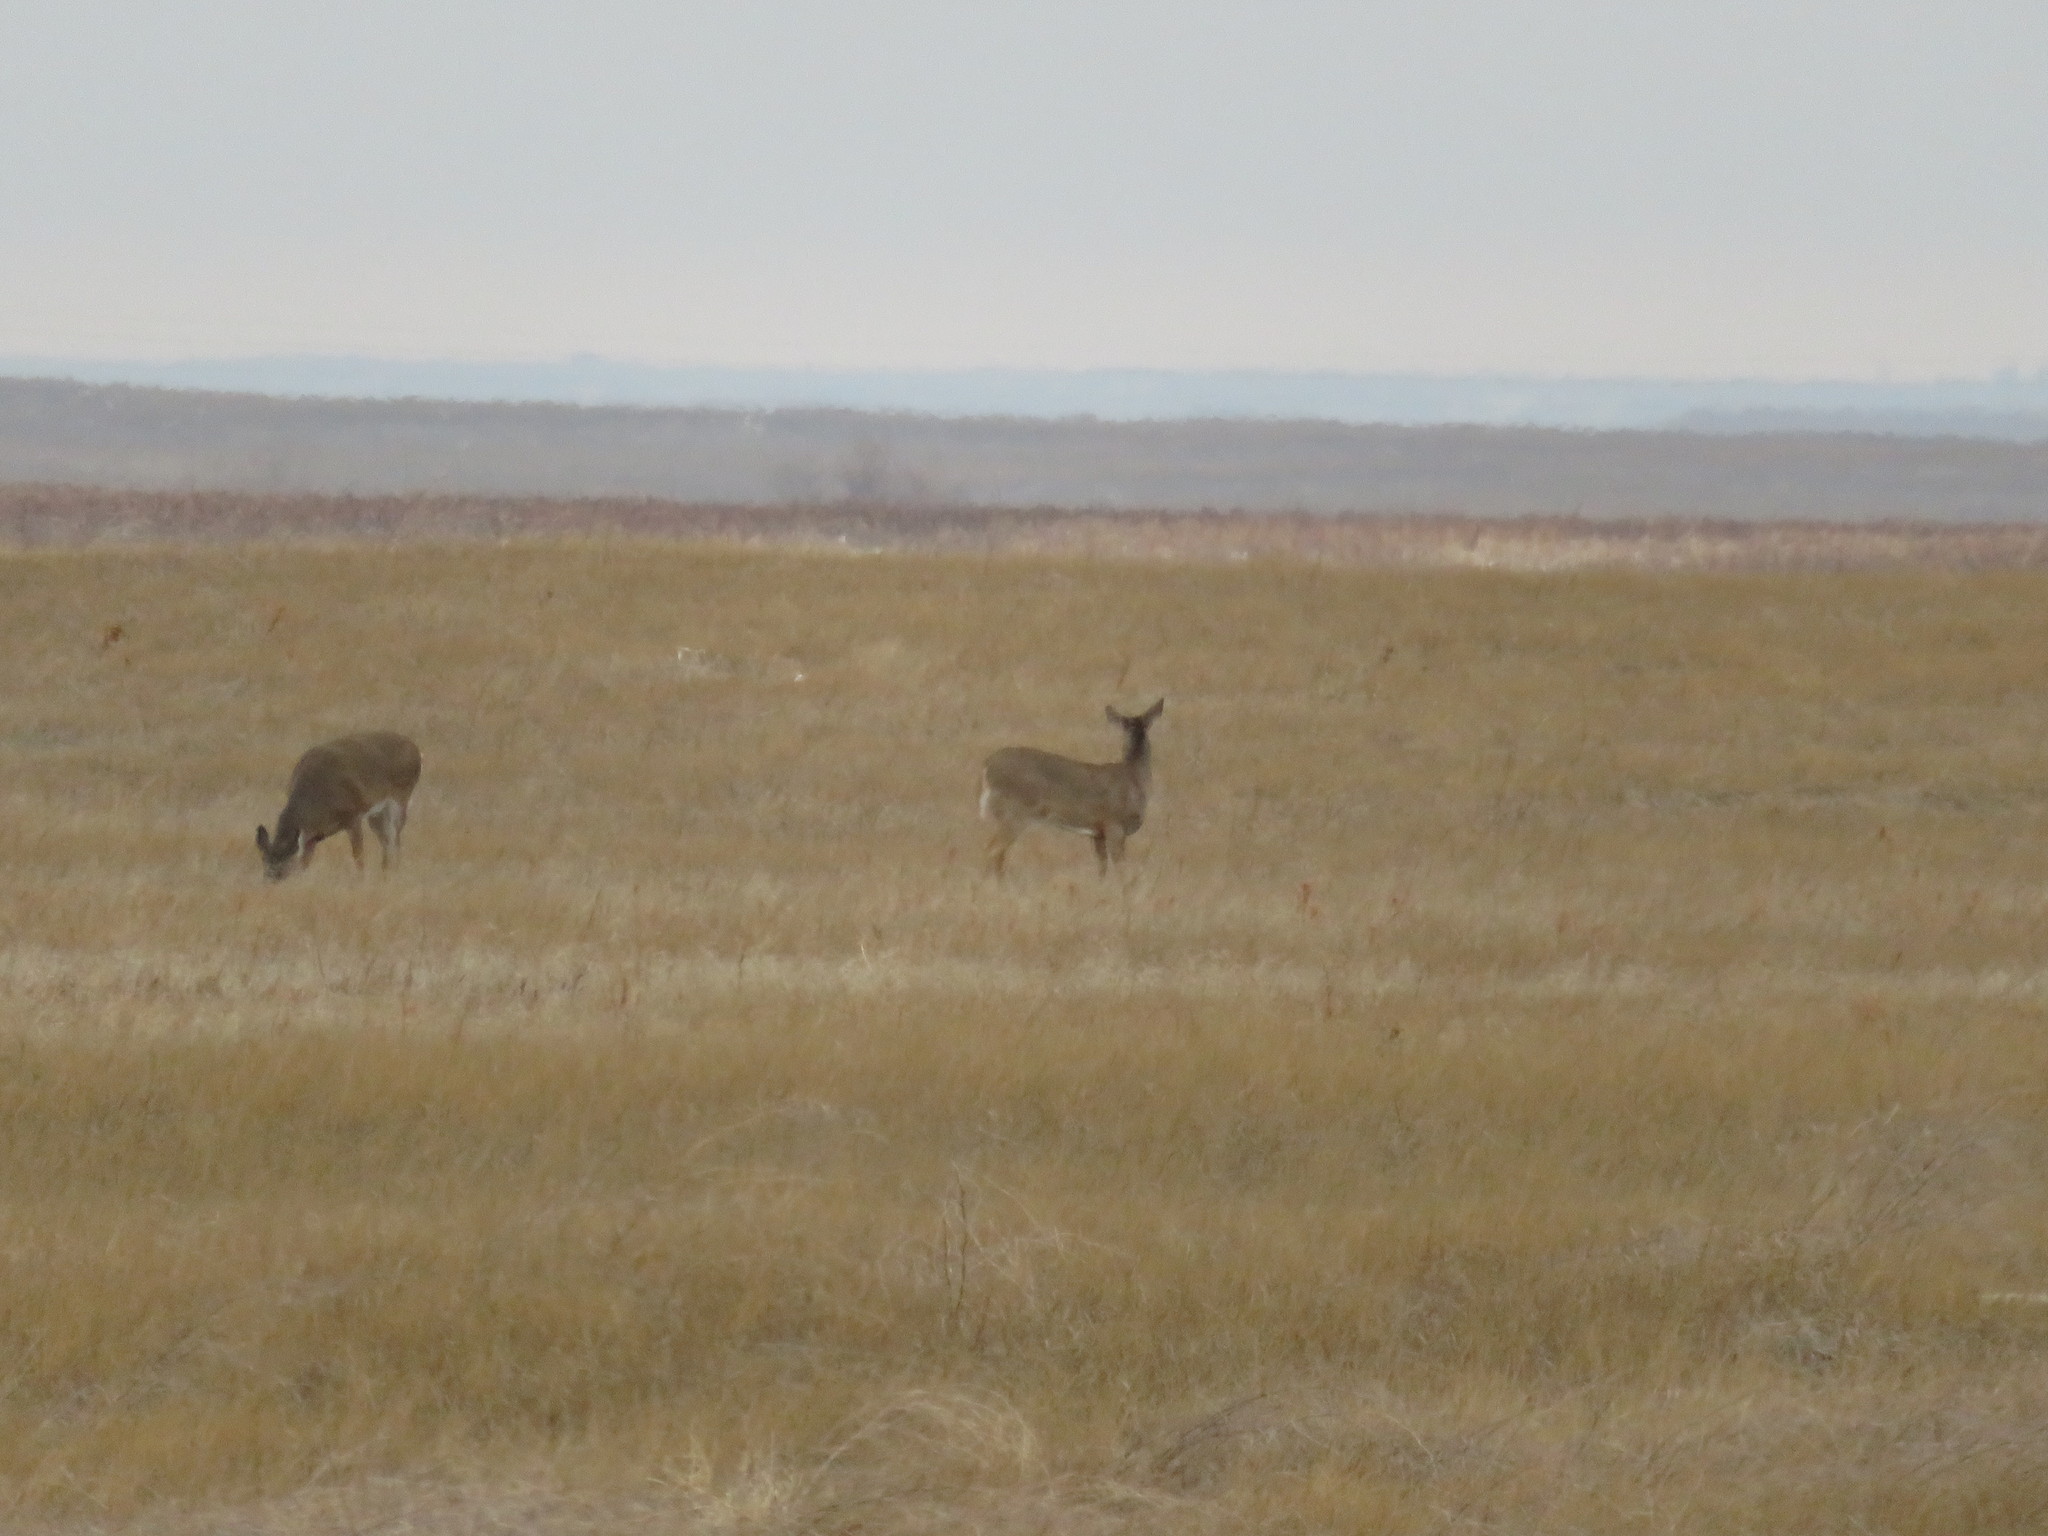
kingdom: Animalia
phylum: Chordata
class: Mammalia
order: Artiodactyla
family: Cervidae
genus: Odocoileus
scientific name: Odocoileus virginianus
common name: White-tailed deer
